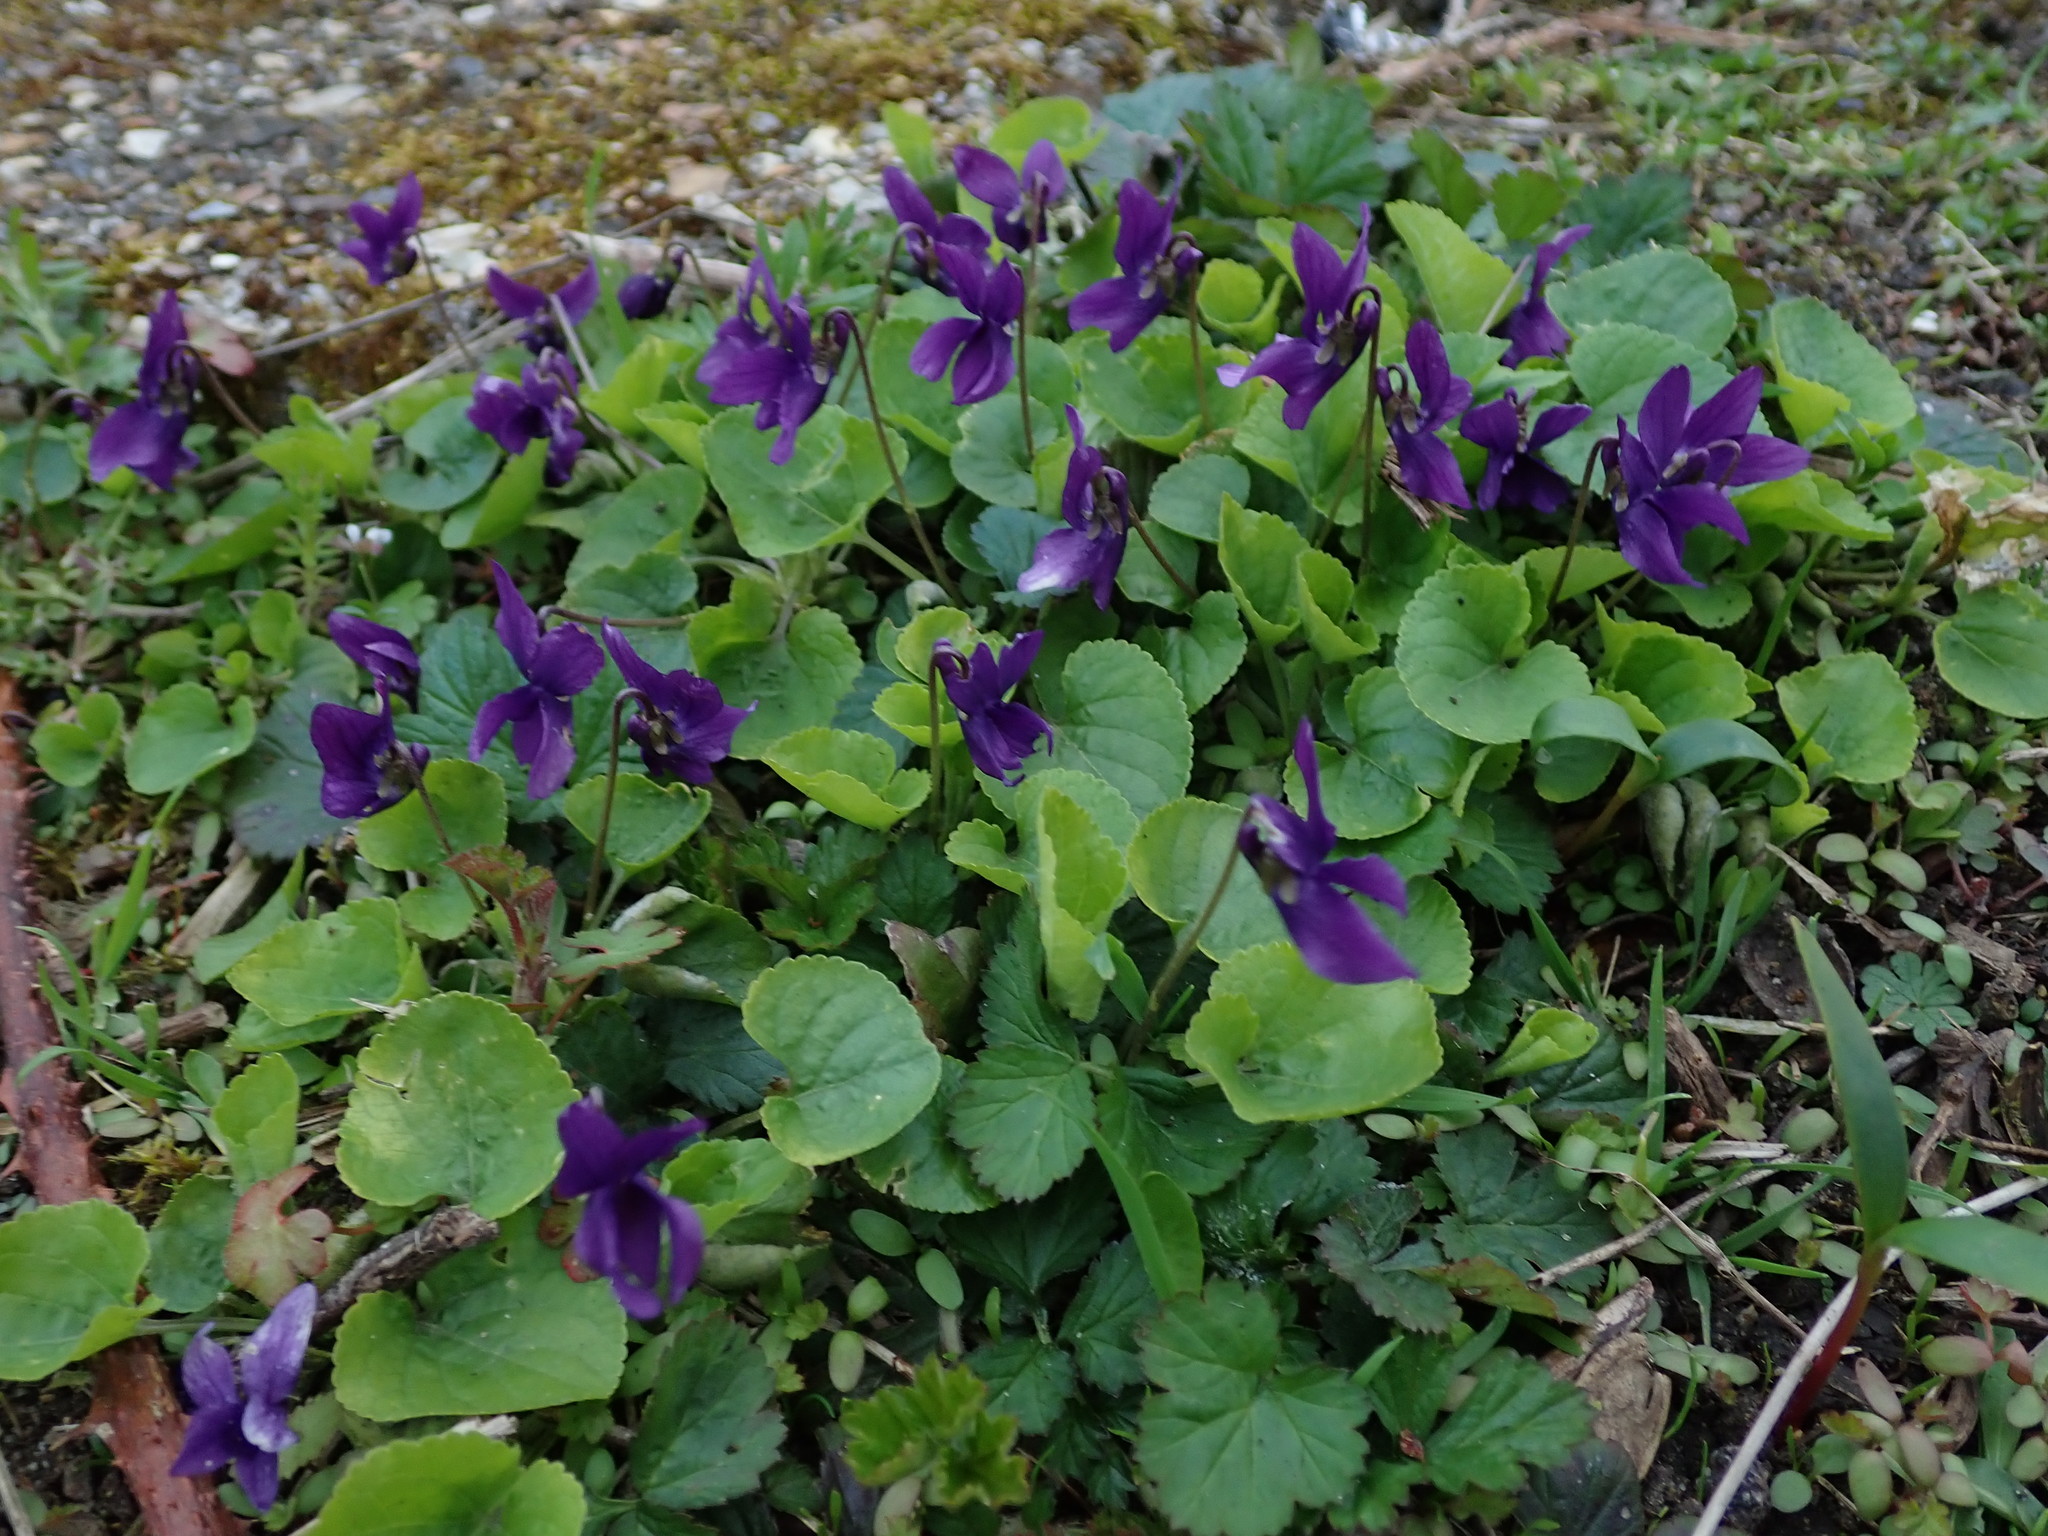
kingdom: Plantae
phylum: Tracheophyta
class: Magnoliopsida
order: Malpighiales
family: Violaceae
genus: Viola
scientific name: Viola odorata
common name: Sweet violet
